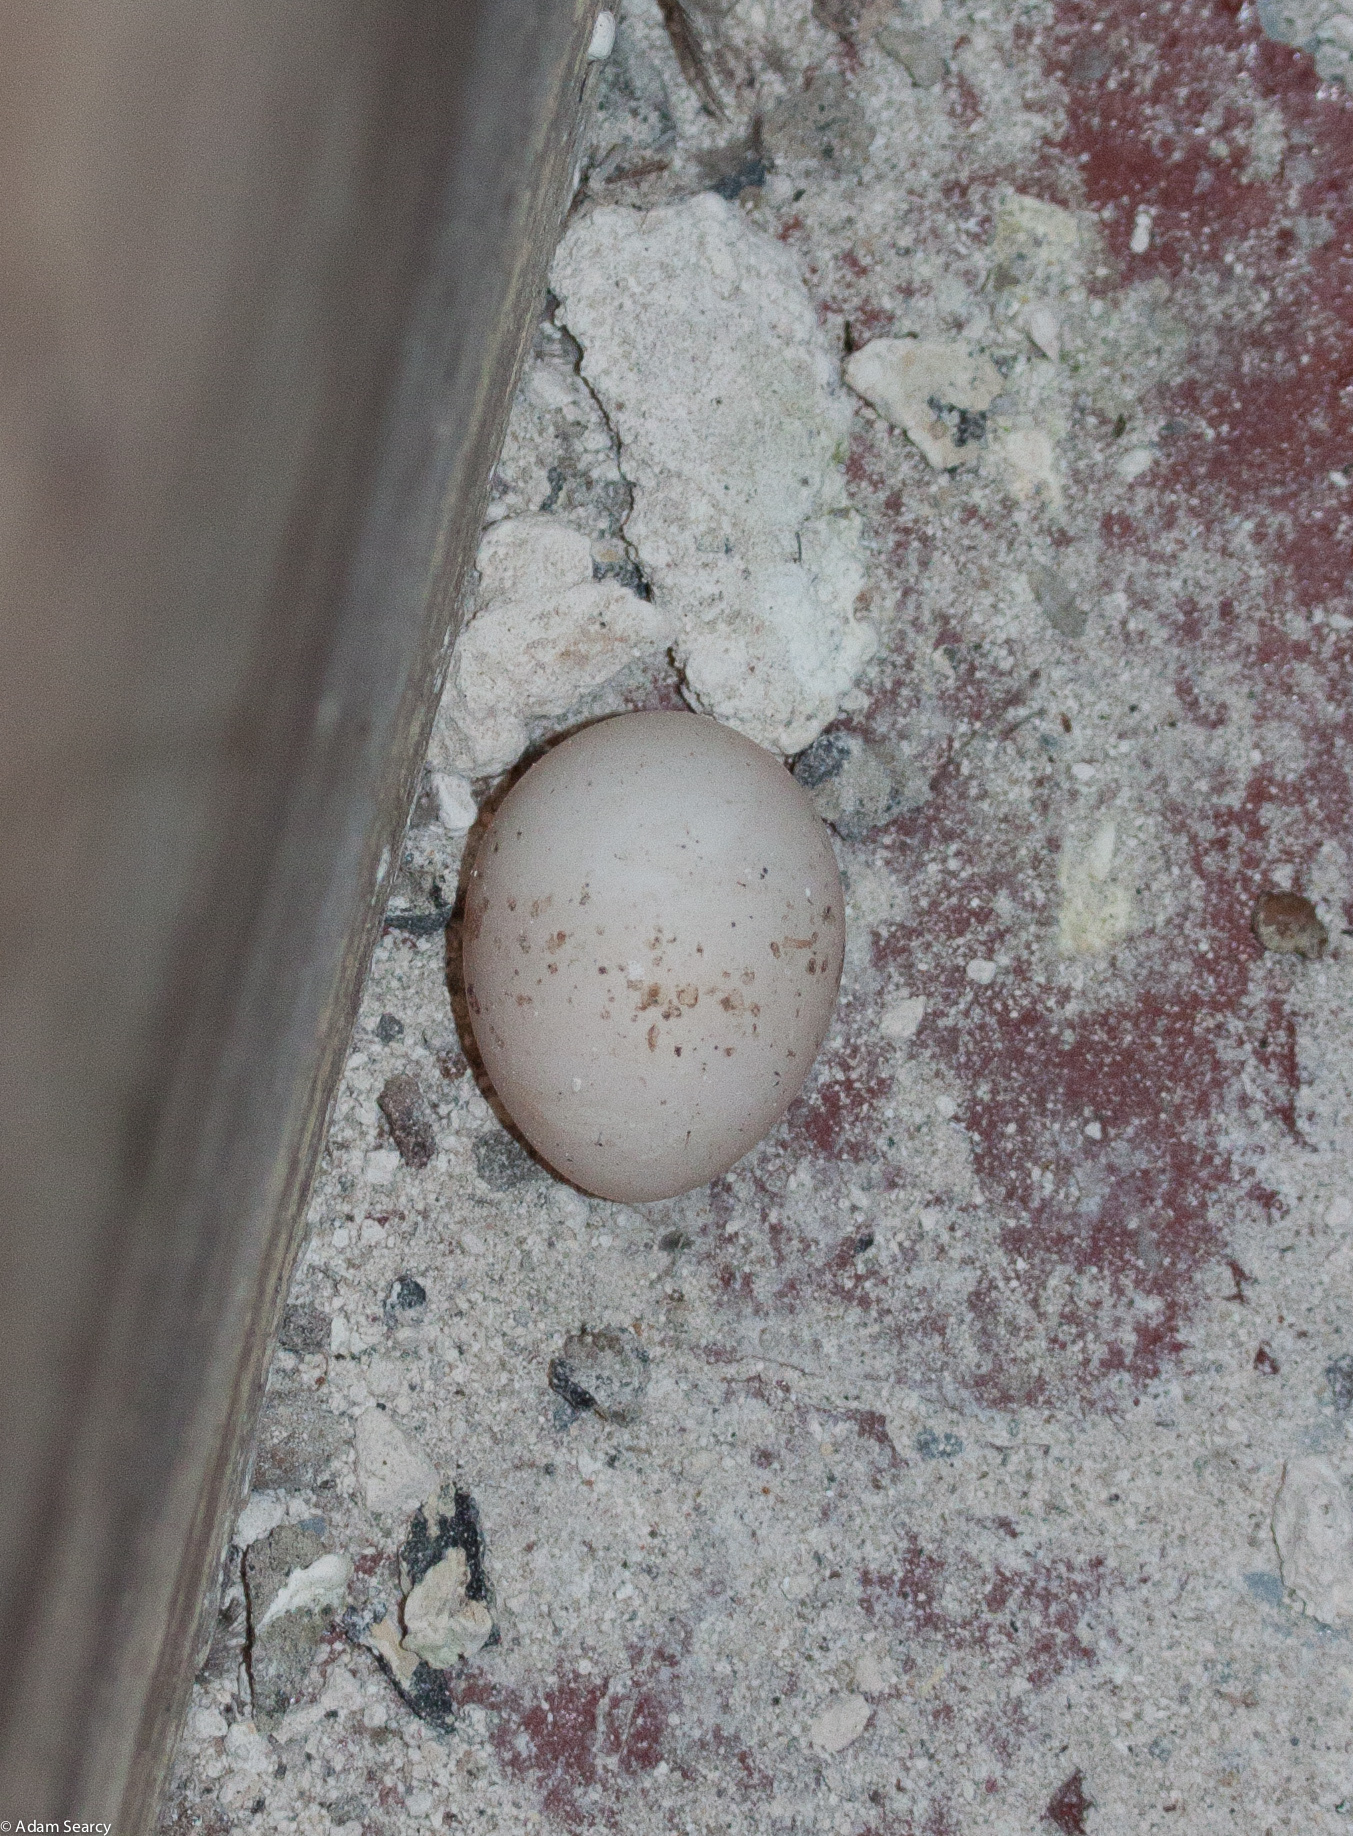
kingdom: Animalia
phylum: Chordata
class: Aves
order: Procellariiformes
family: Hydrobatidae
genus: Hydrobates
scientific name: Hydrobates homochroa
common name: Ashy storm petrel
